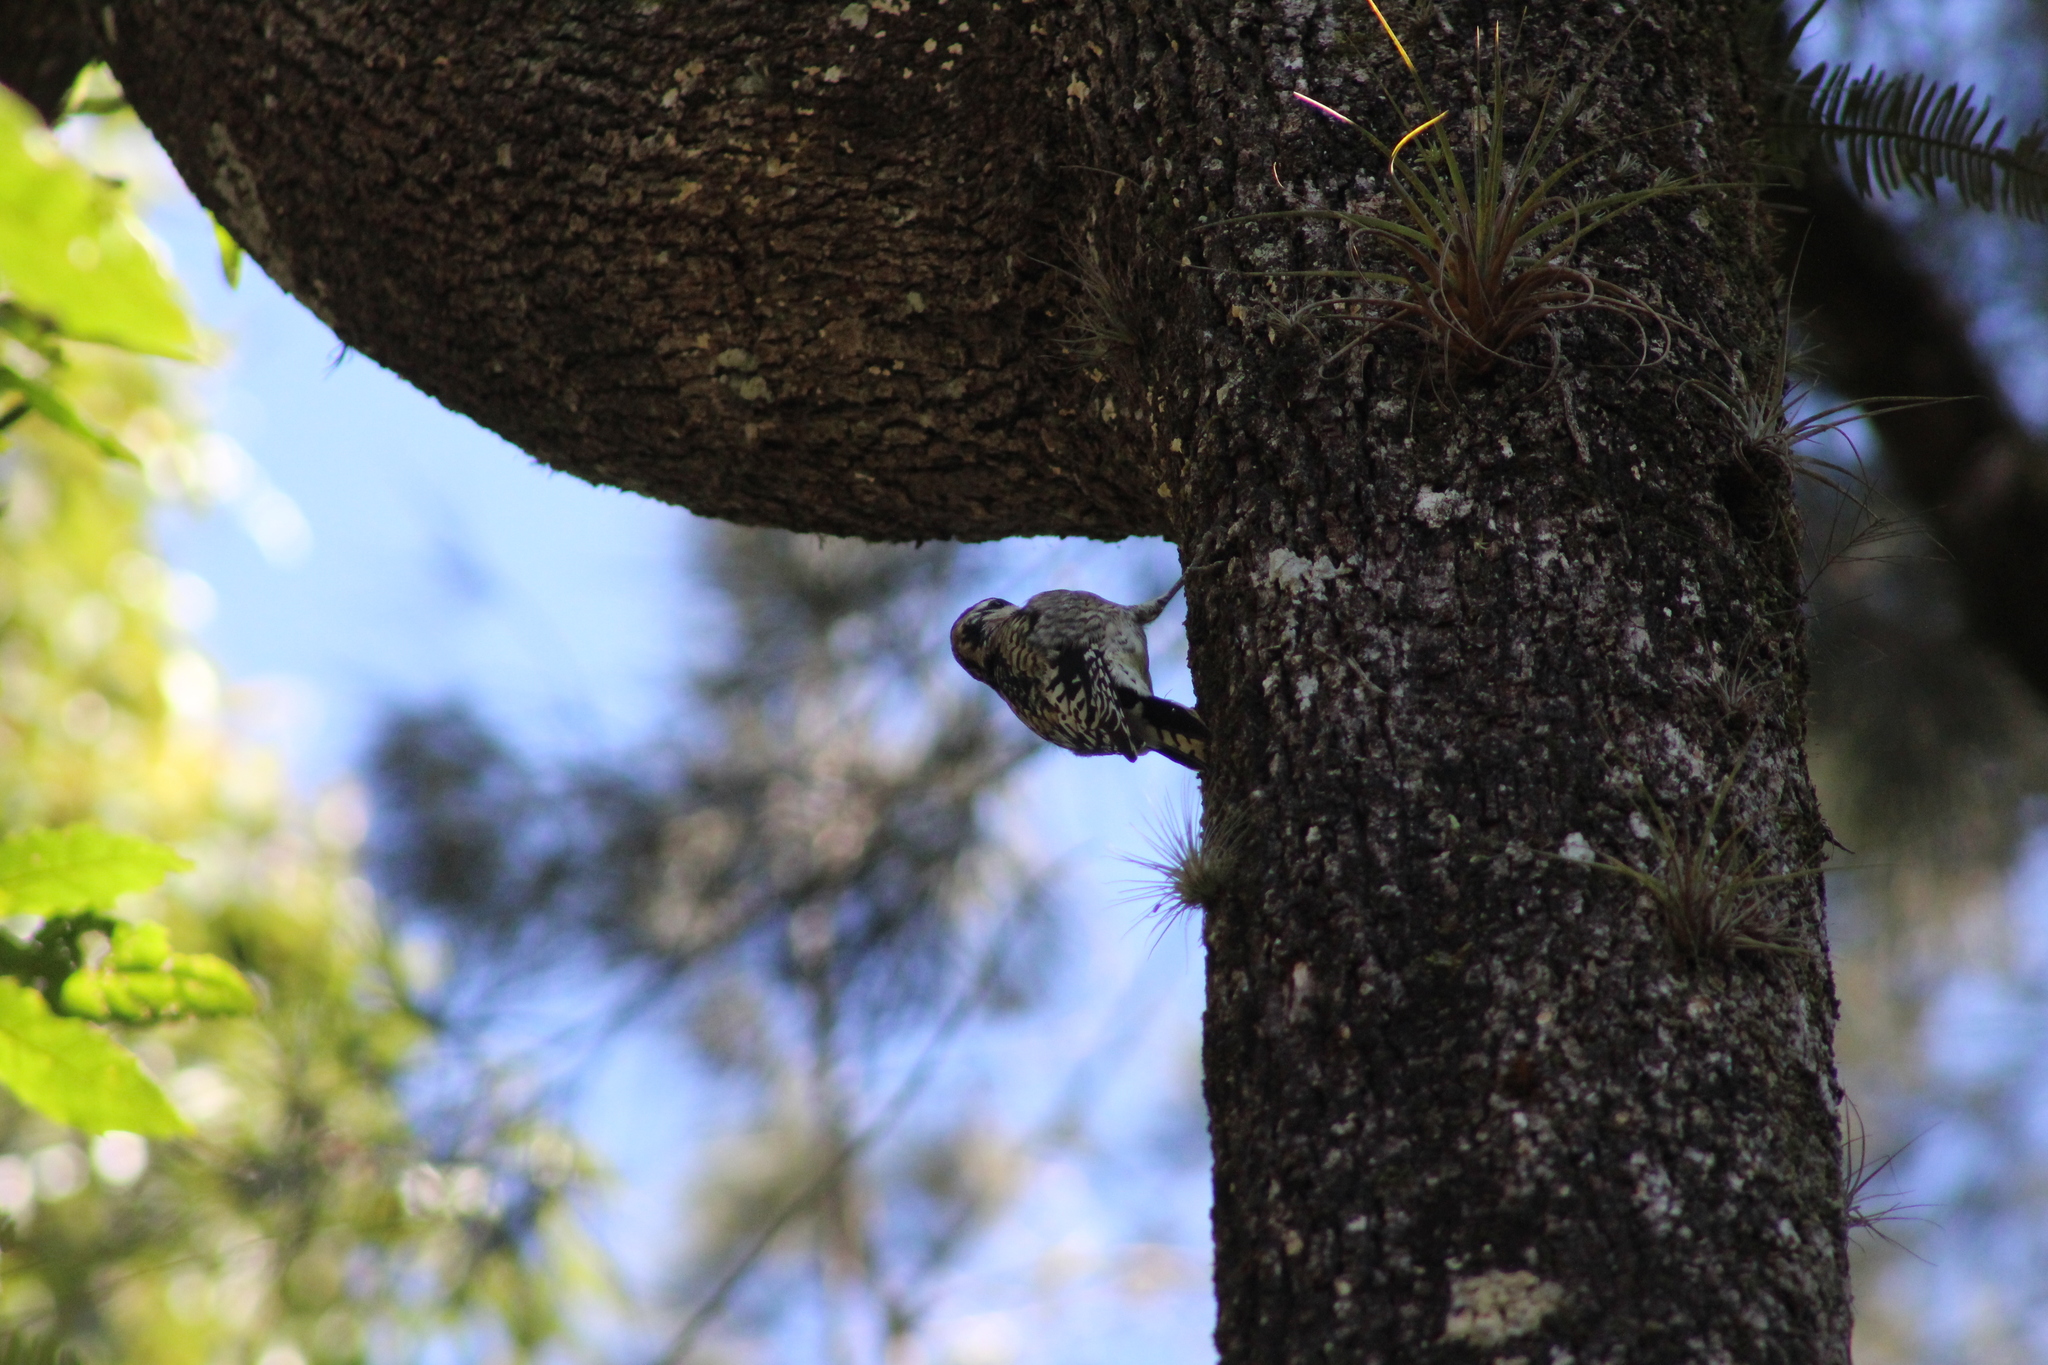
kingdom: Animalia
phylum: Chordata
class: Aves
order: Piciformes
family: Picidae
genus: Sphyrapicus
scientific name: Sphyrapicus varius
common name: Yellow-bellied sapsucker
